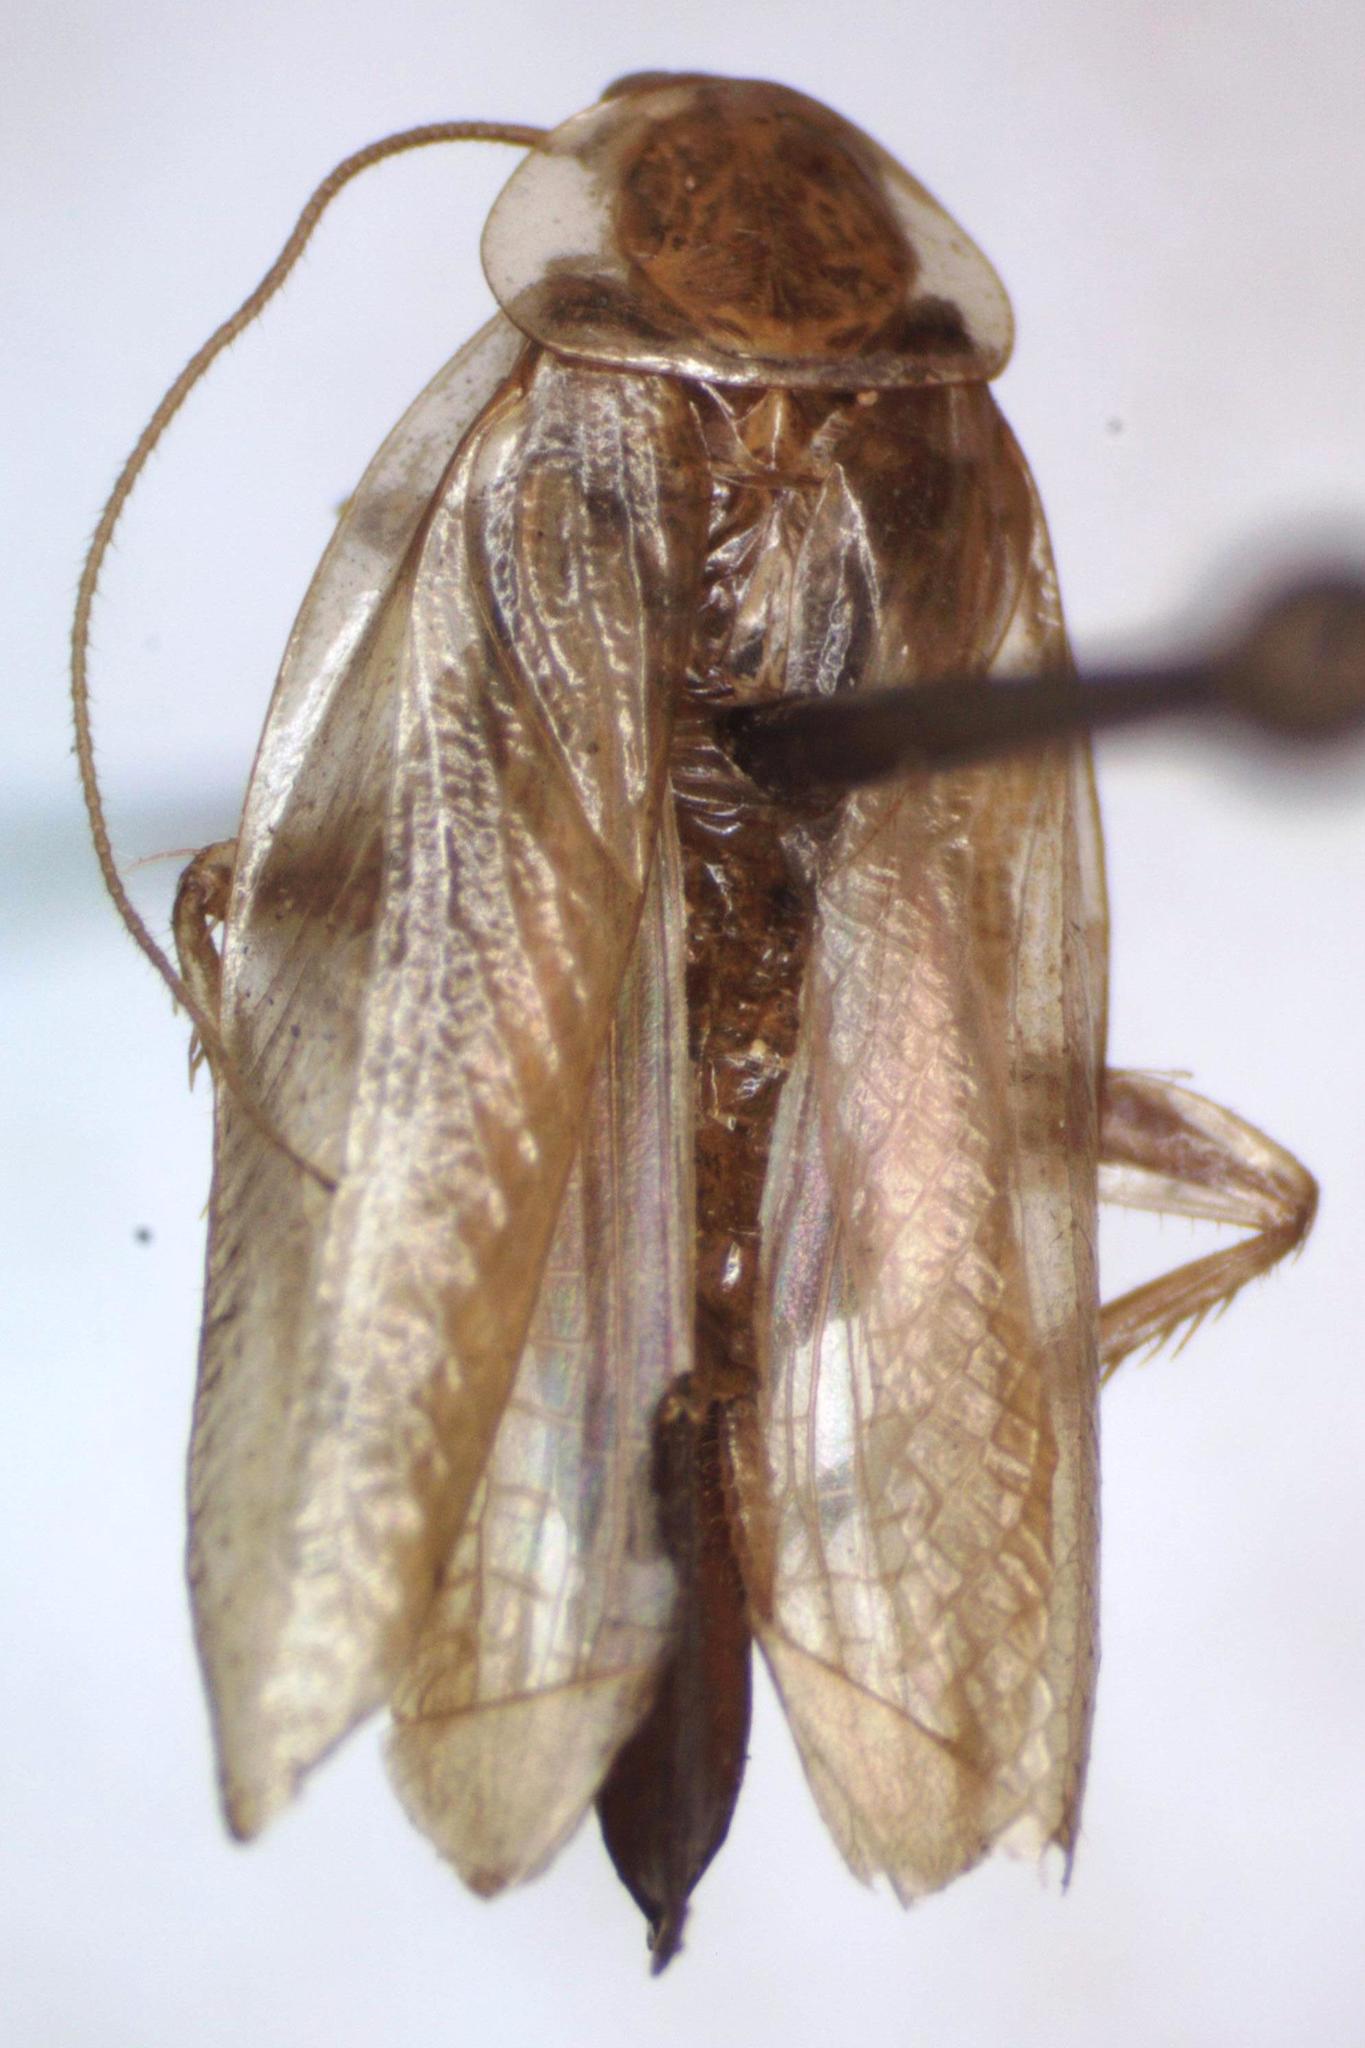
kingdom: Animalia
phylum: Arthropoda
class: Insecta
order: Blattodea
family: Ectobiidae
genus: Chorisoneura
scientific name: Chorisoneura translucida
